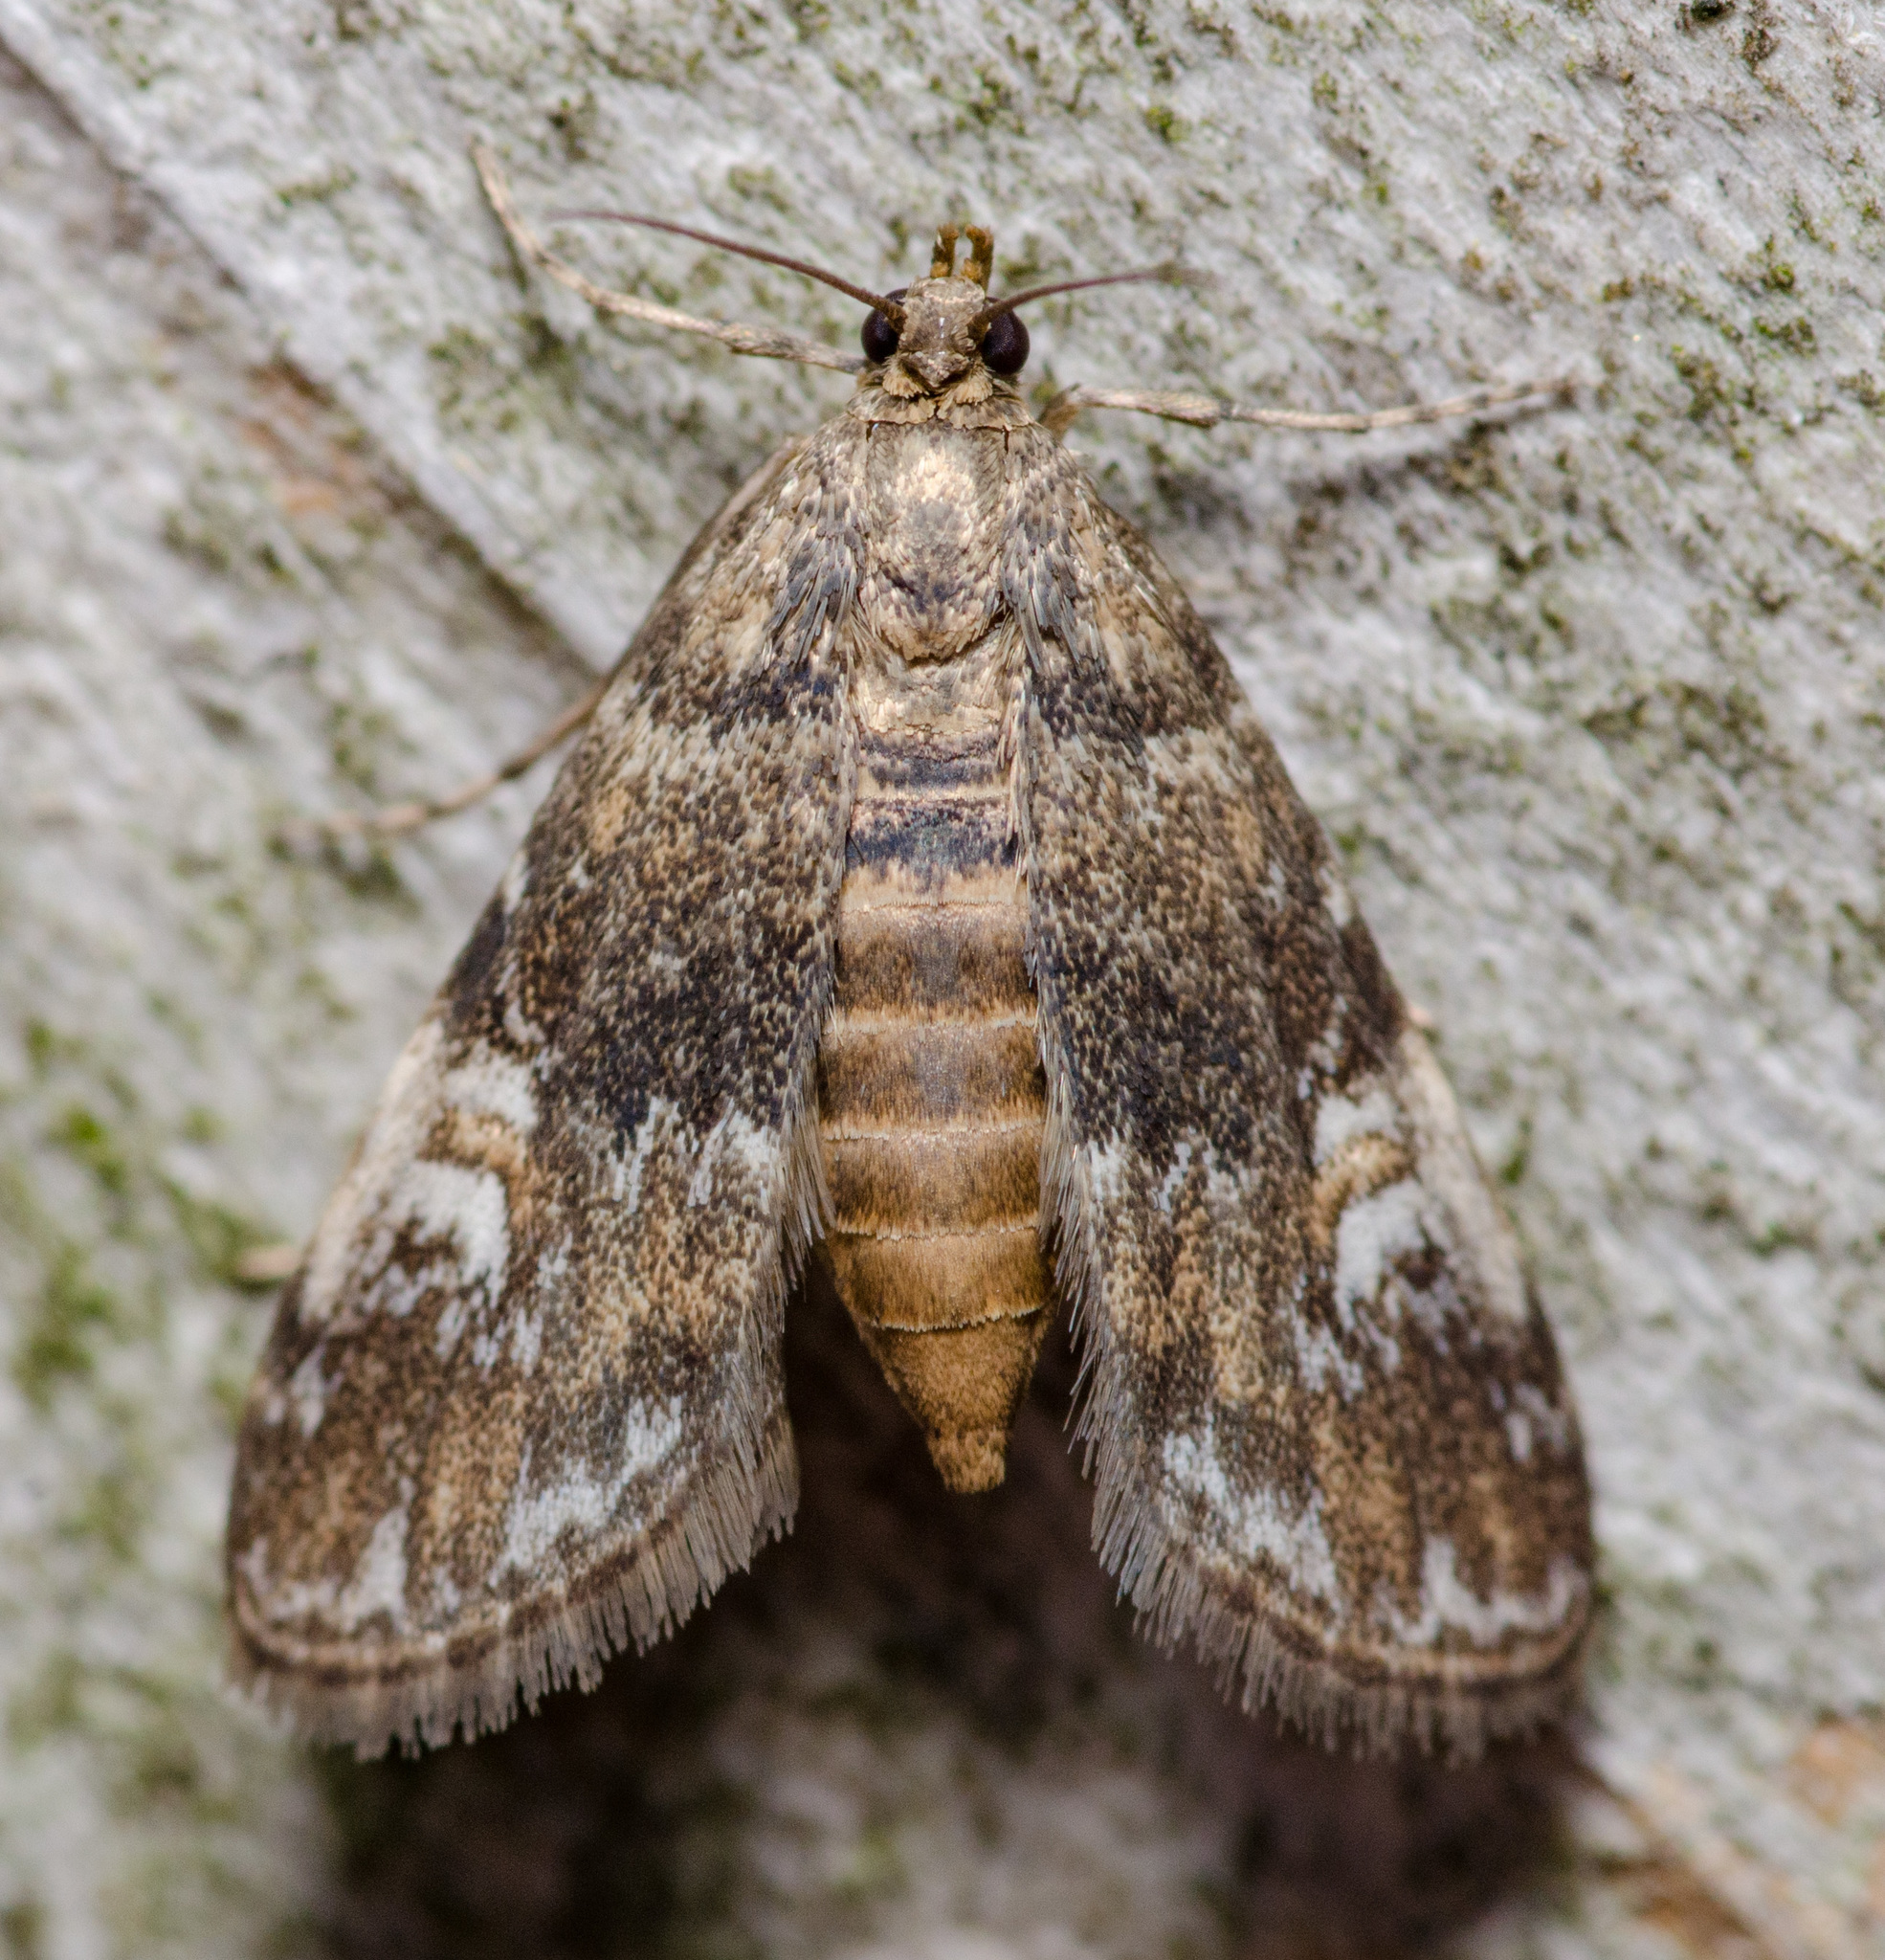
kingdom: Animalia
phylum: Arthropoda
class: Insecta
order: Lepidoptera
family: Crambidae
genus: Elophila
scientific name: Elophila obliteralis
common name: Waterlily leafcutter moth
